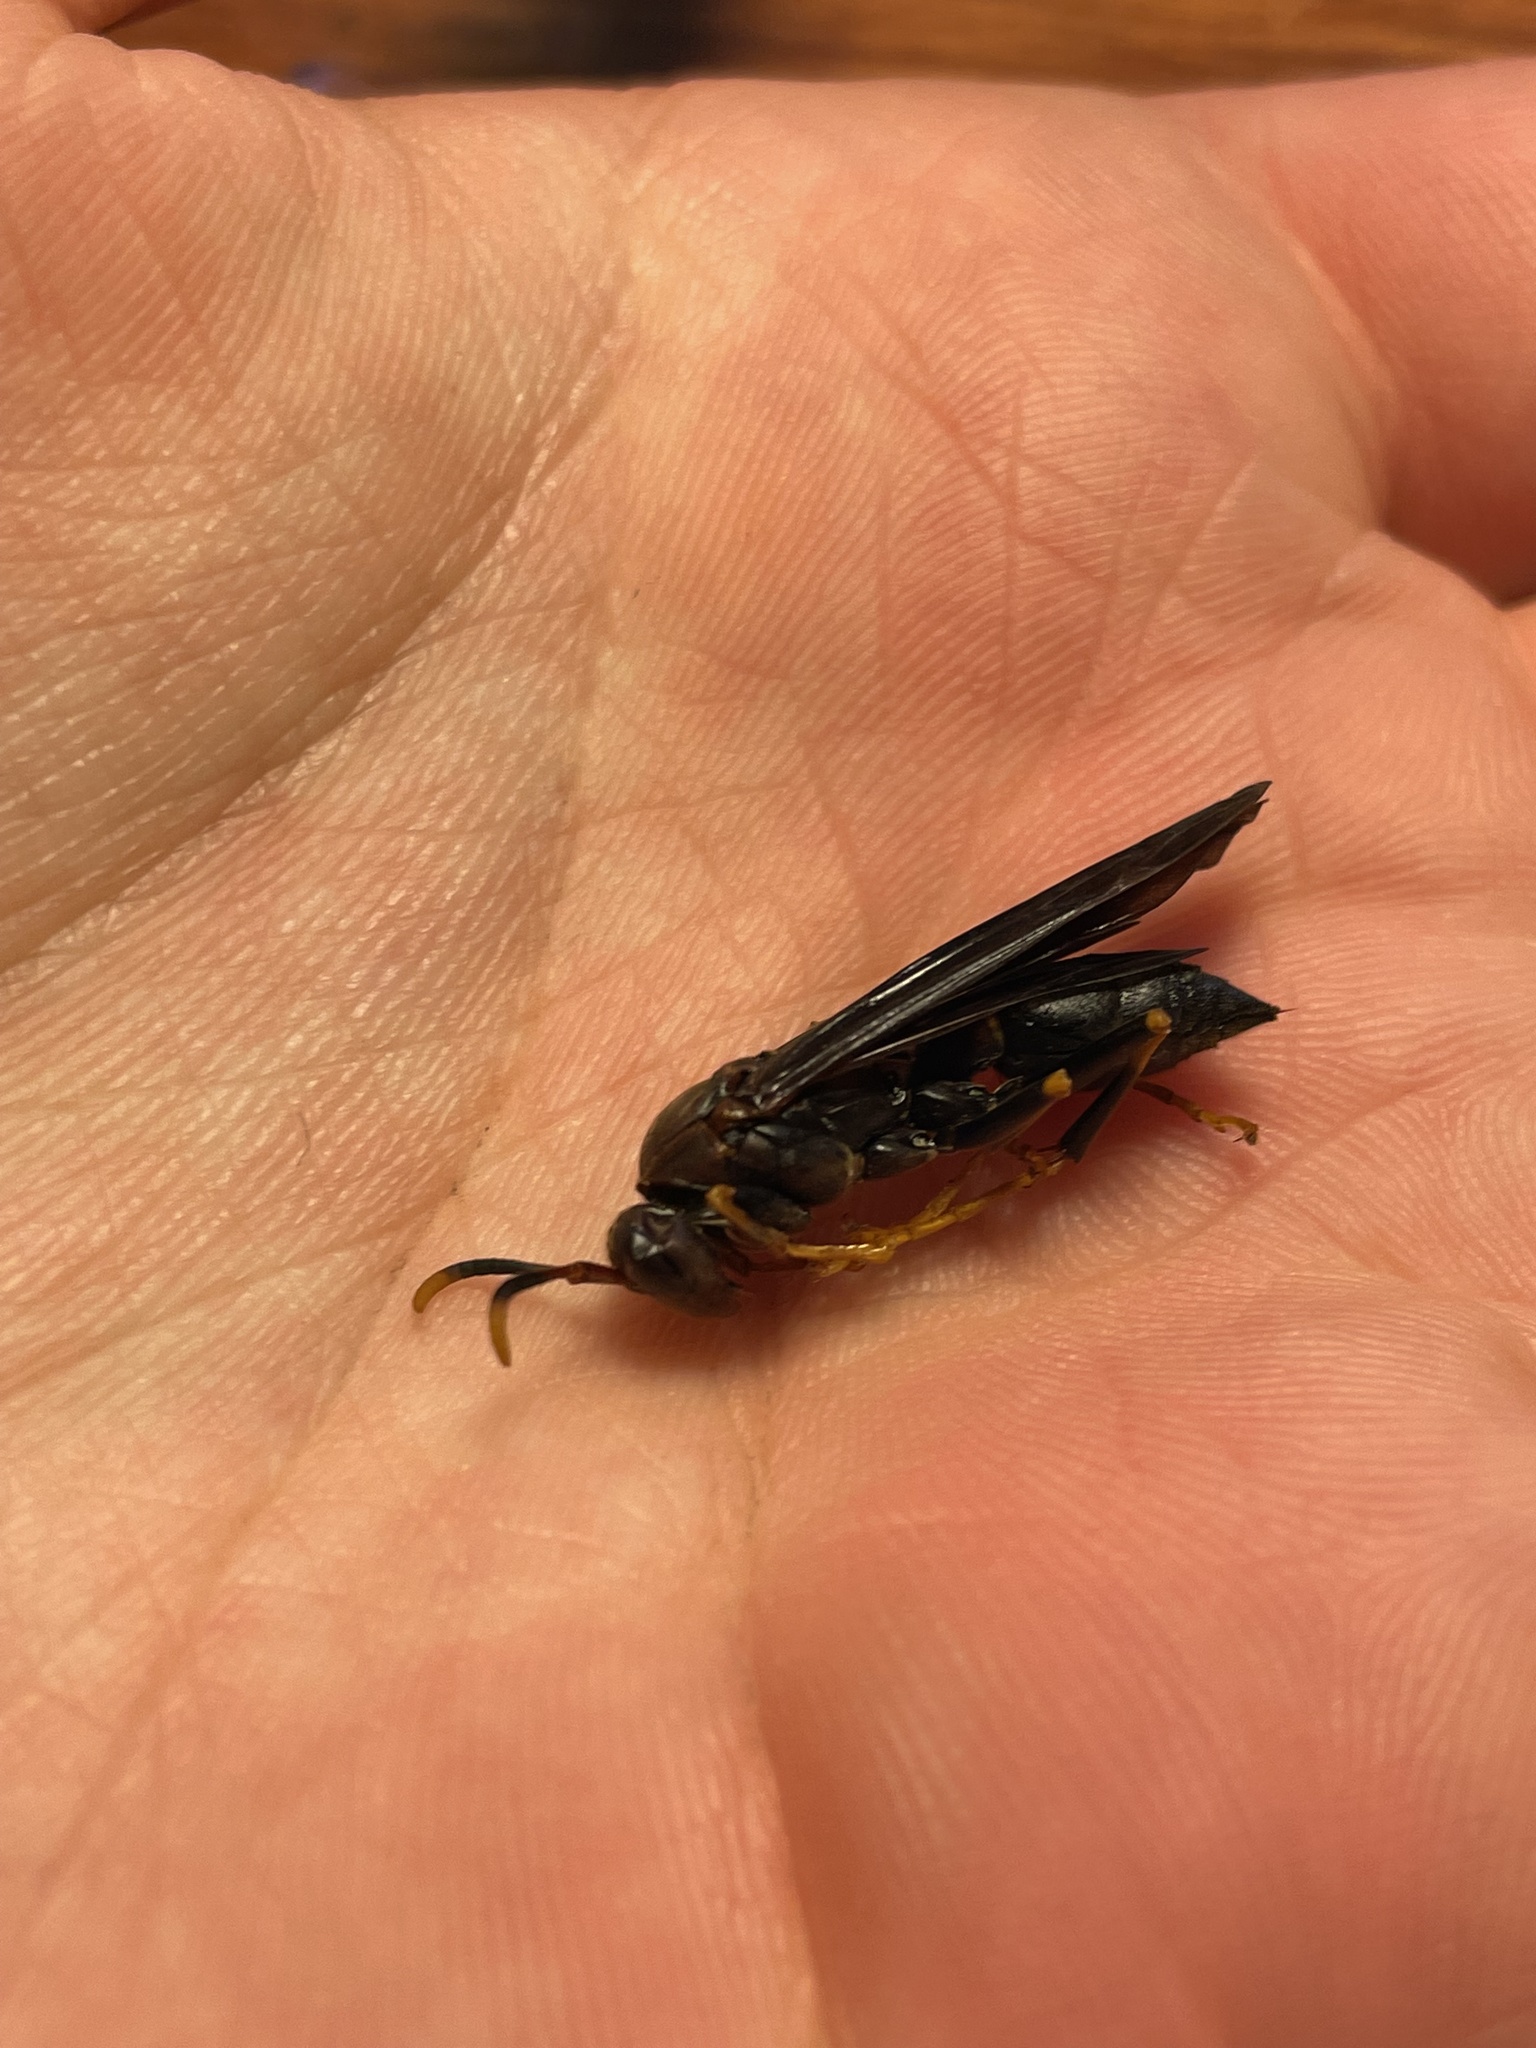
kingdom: Animalia
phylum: Arthropoda
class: Insecta
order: Hymenoptera
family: Eumenidae
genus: Polistes
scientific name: Polistes metricus
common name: Metric paper wasp
